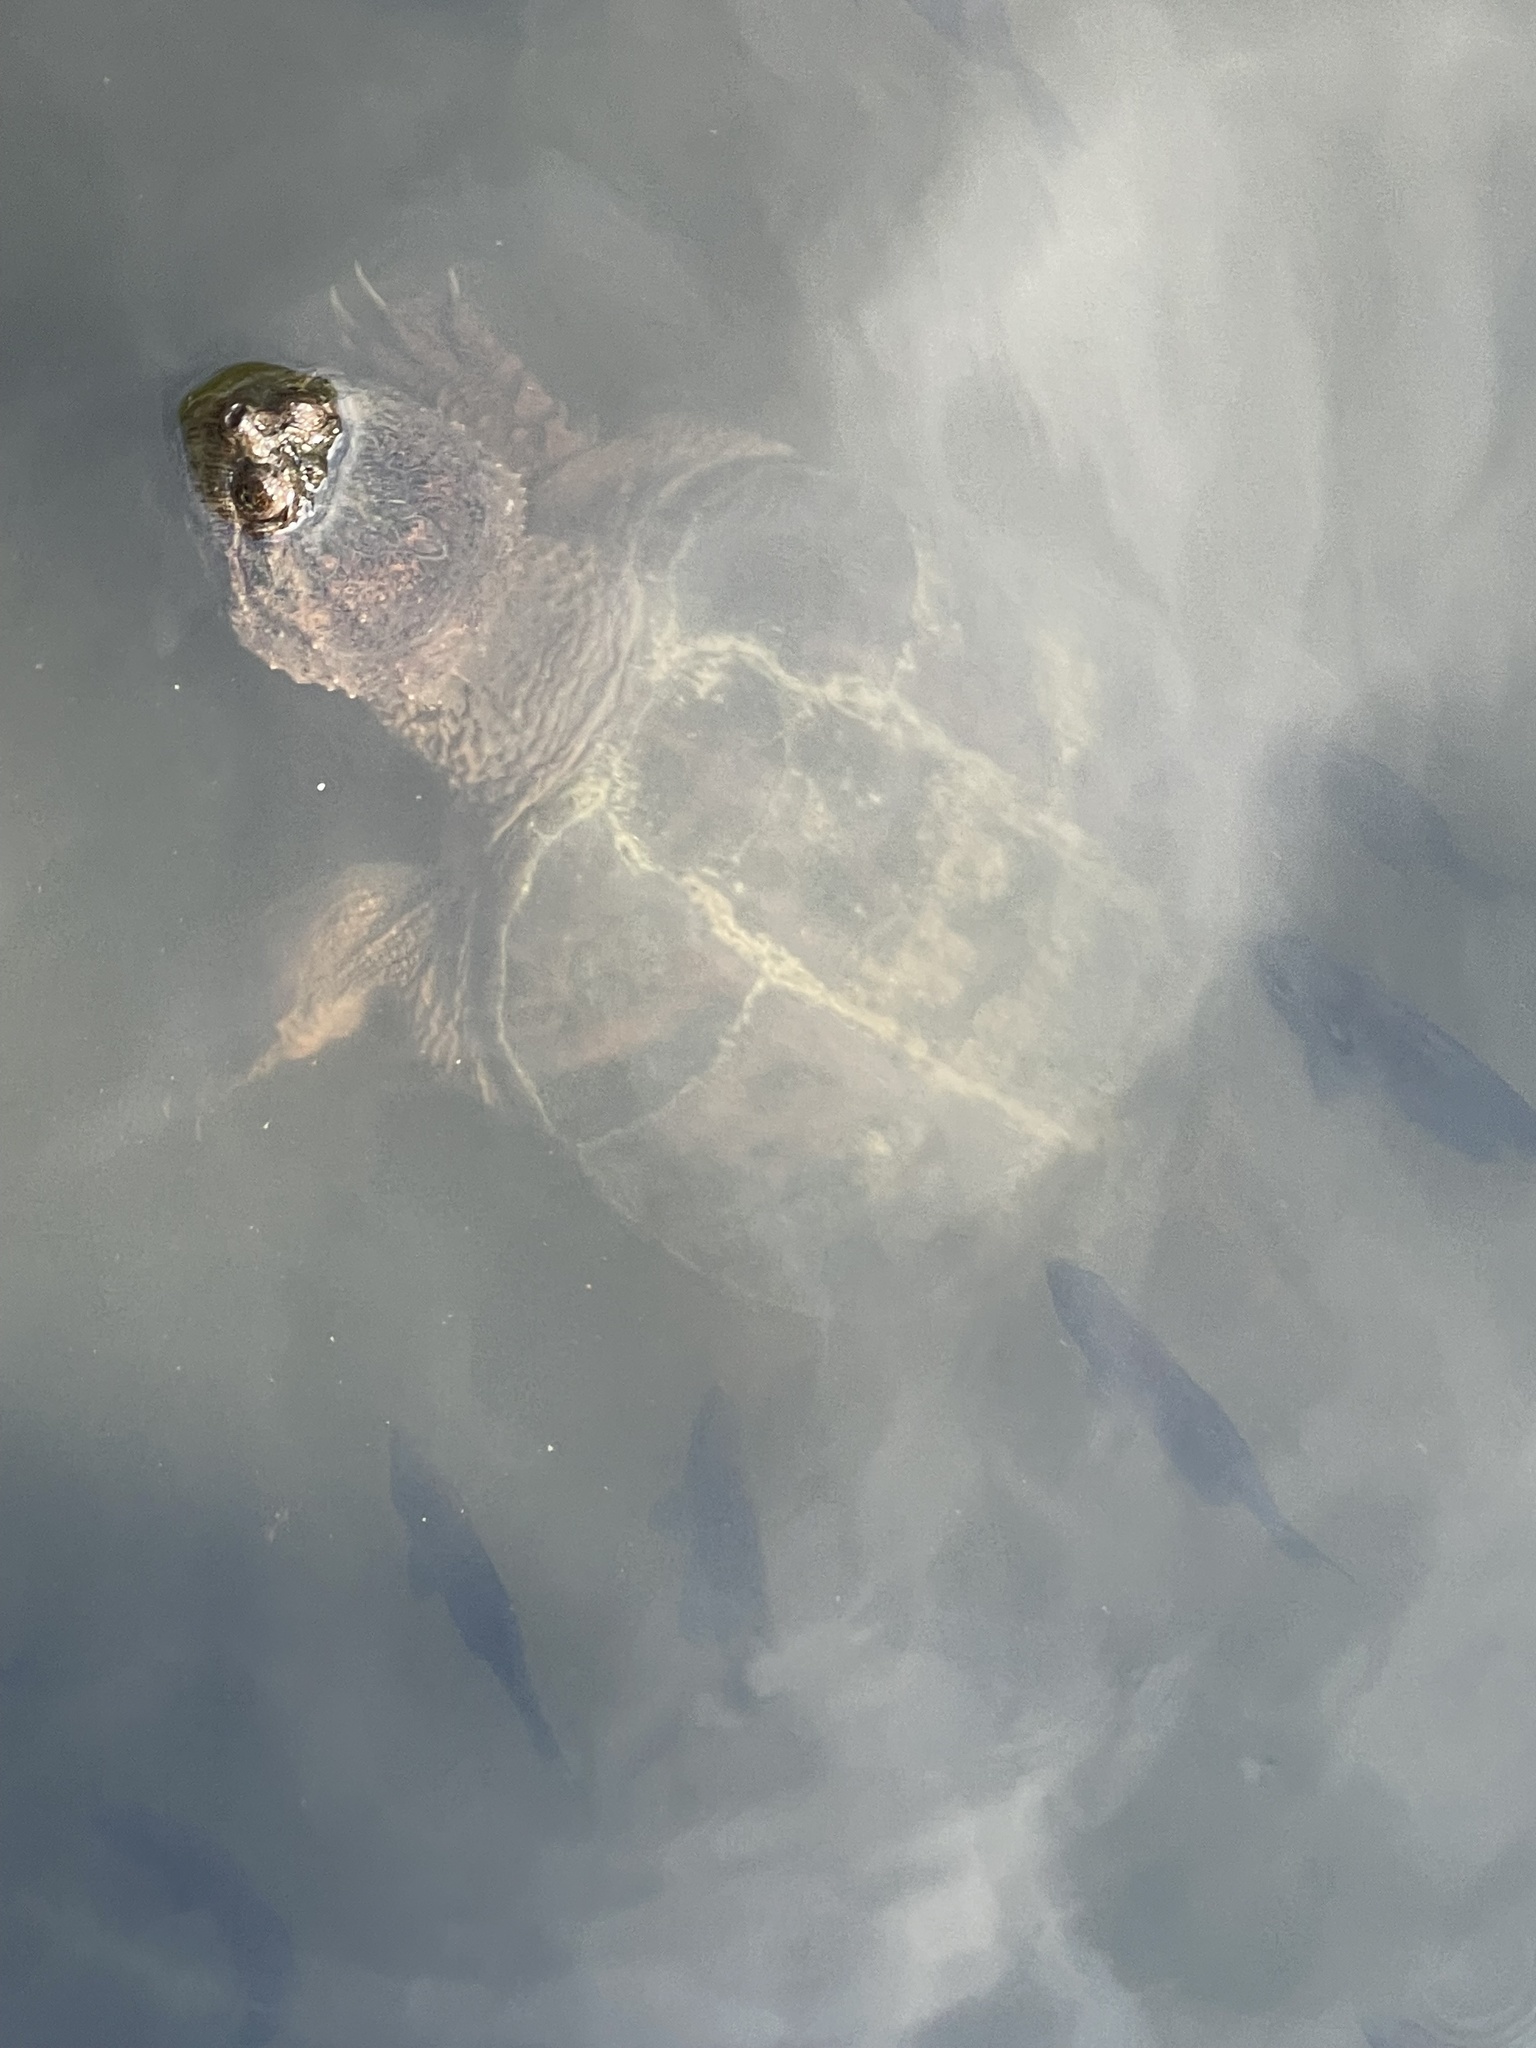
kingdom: Animalia
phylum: Chordata
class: Testudines
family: Chelydridae
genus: Chelydra
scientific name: Chelydra serpentina
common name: Common snapping turtle
